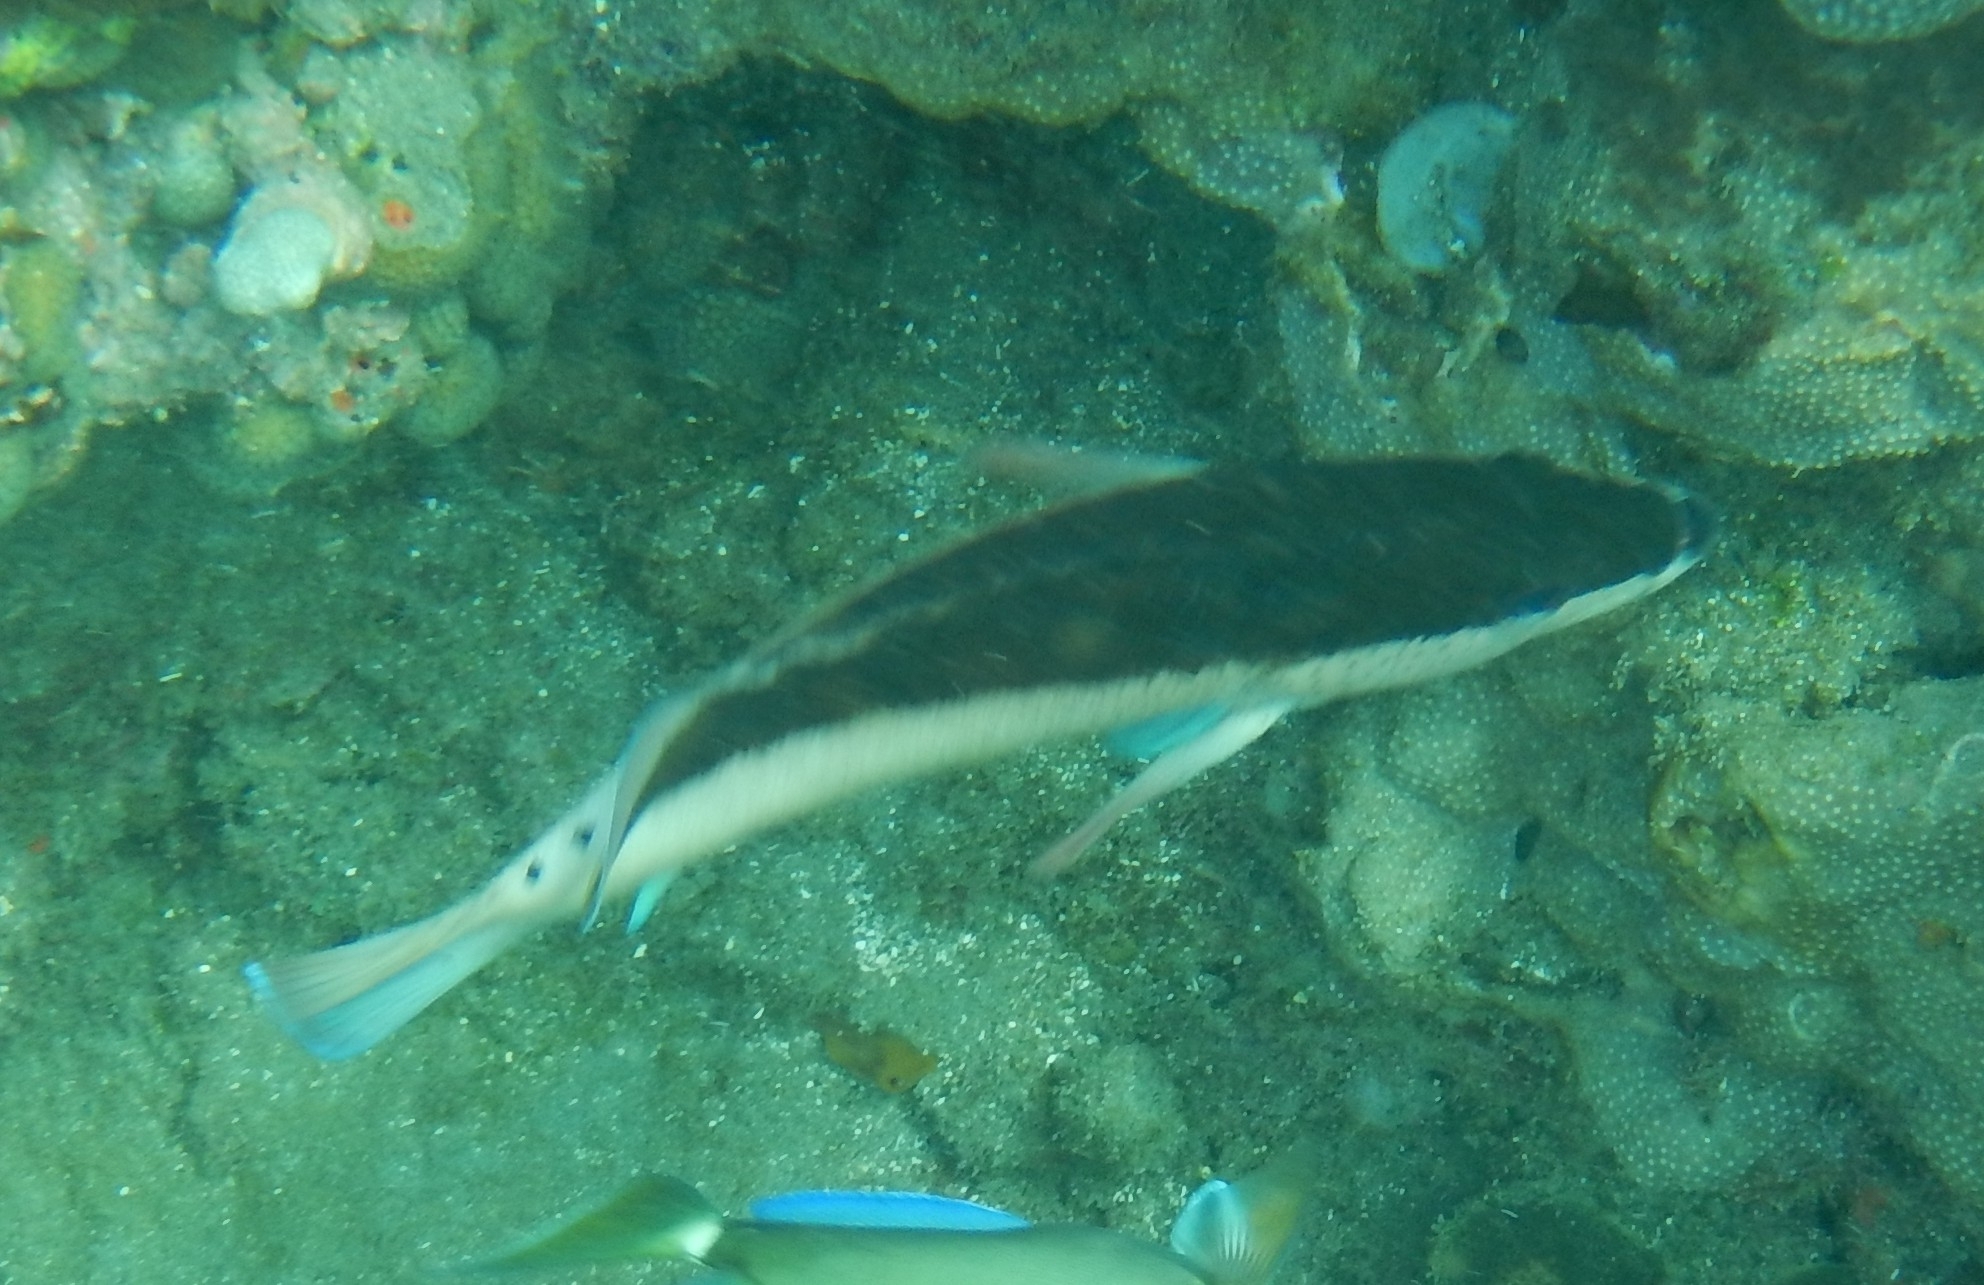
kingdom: Animalia
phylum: Chordata
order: Perciformes
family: Serranidae
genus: Cephalopholis
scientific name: Cephalopholis fulva
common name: Butterfish
